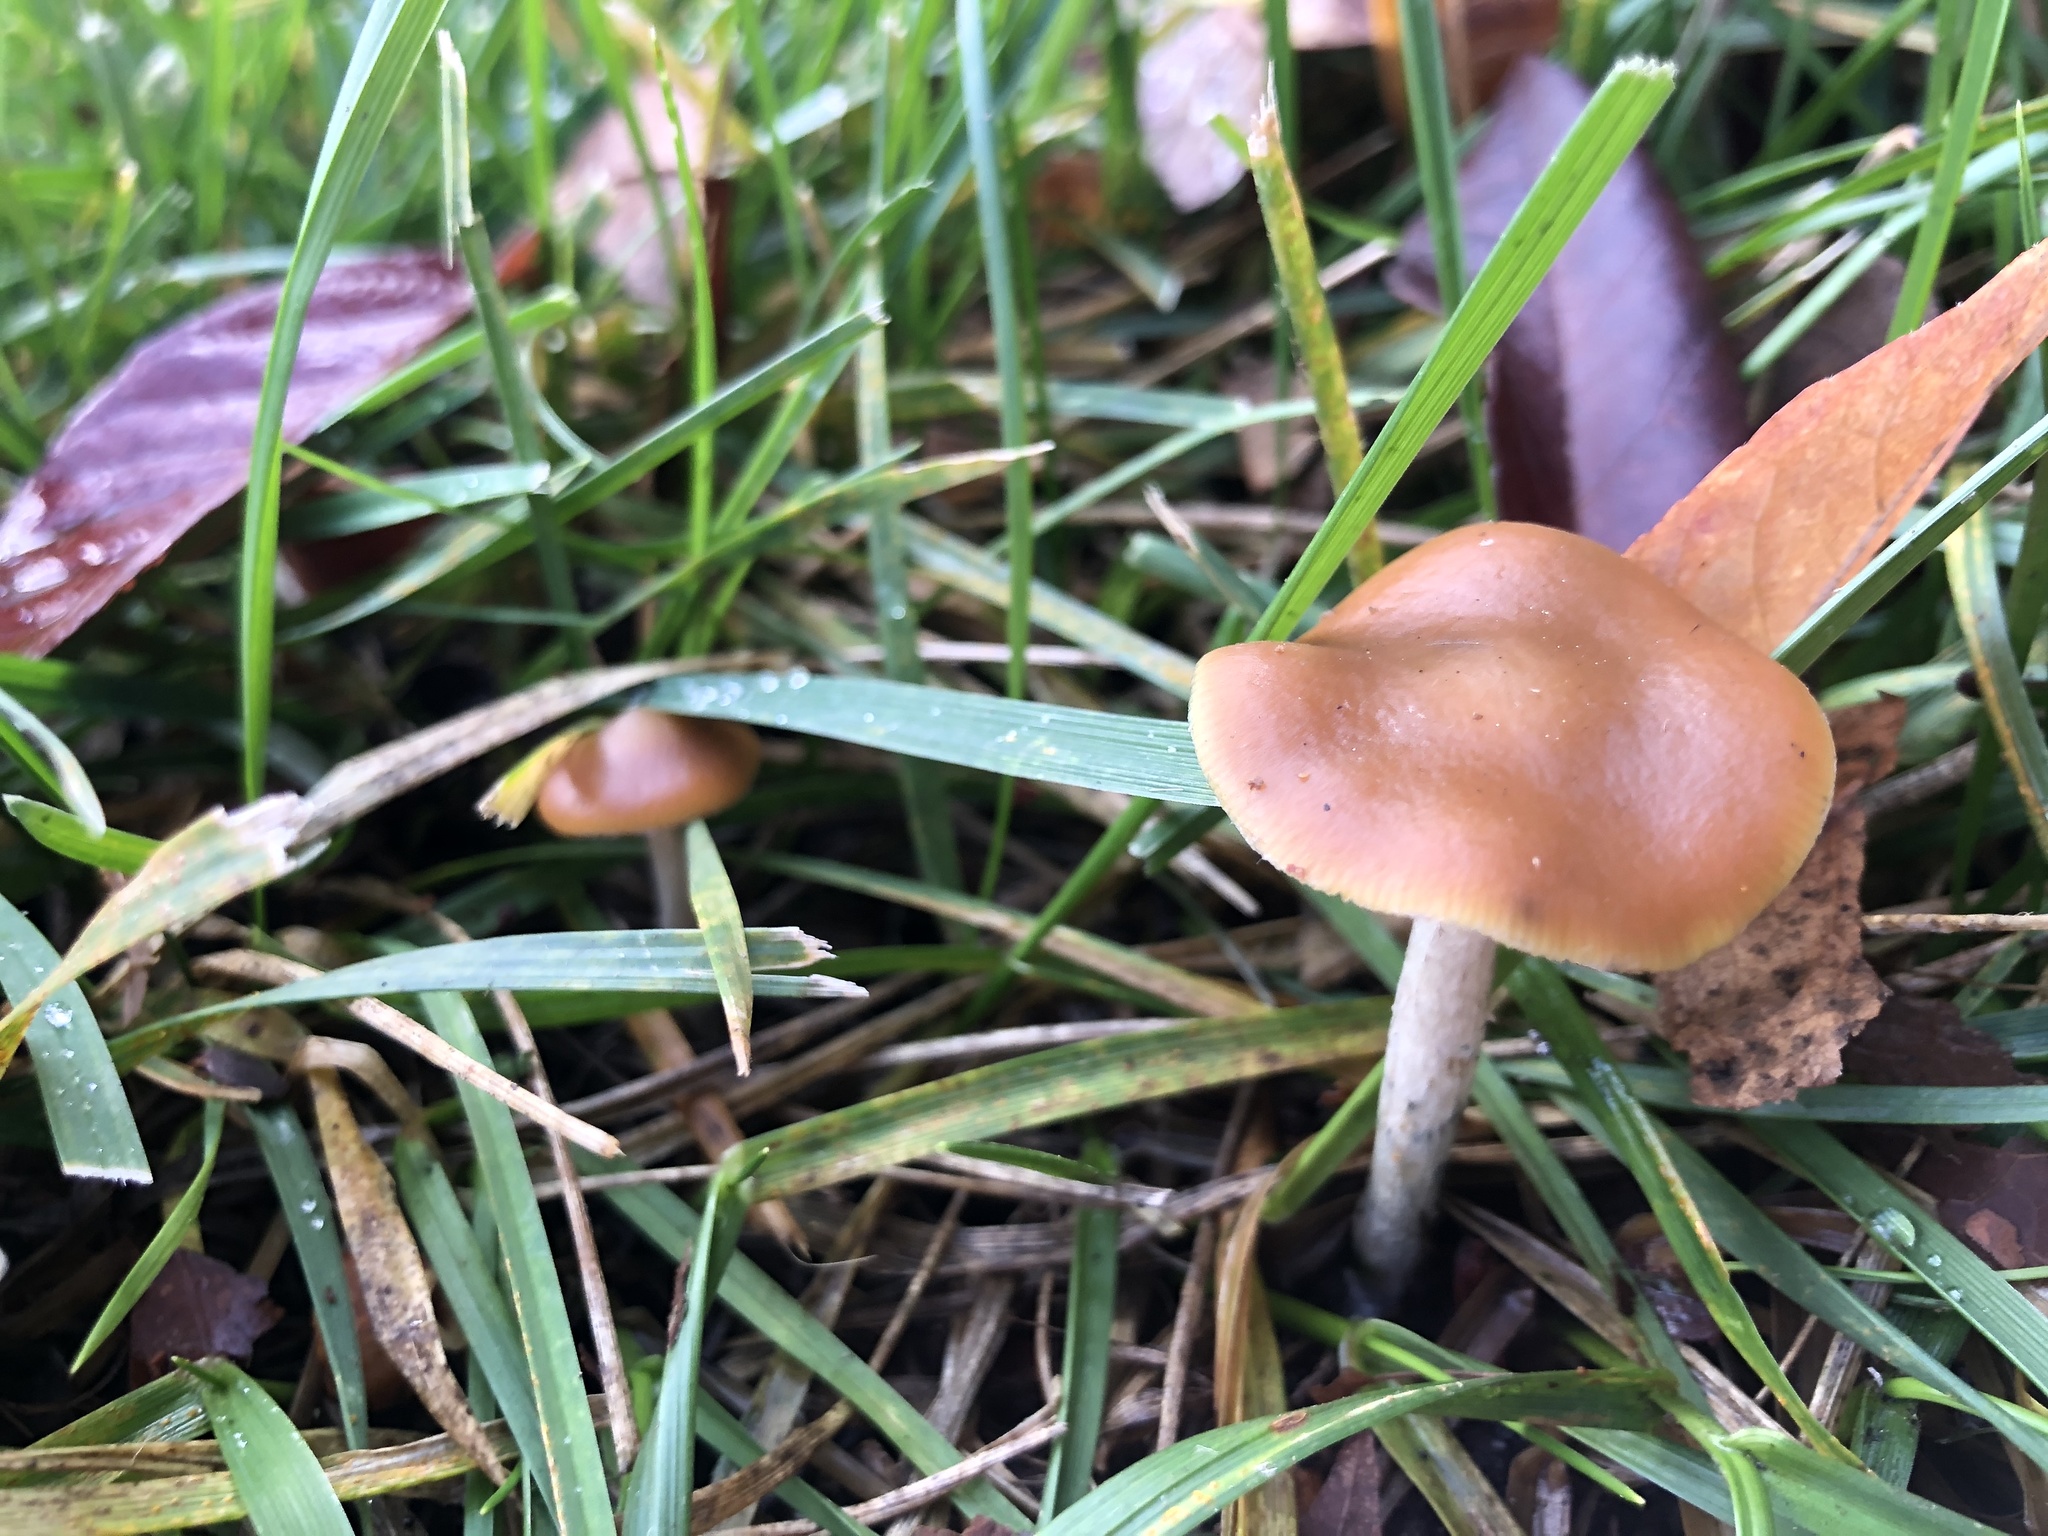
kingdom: Fungi
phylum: Basidiomycota
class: Agaricomycetes
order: Agaricales
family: Hymenogastraceae
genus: Psilocybe
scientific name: Psilocybe cyanescens
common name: Blueleg brownie
